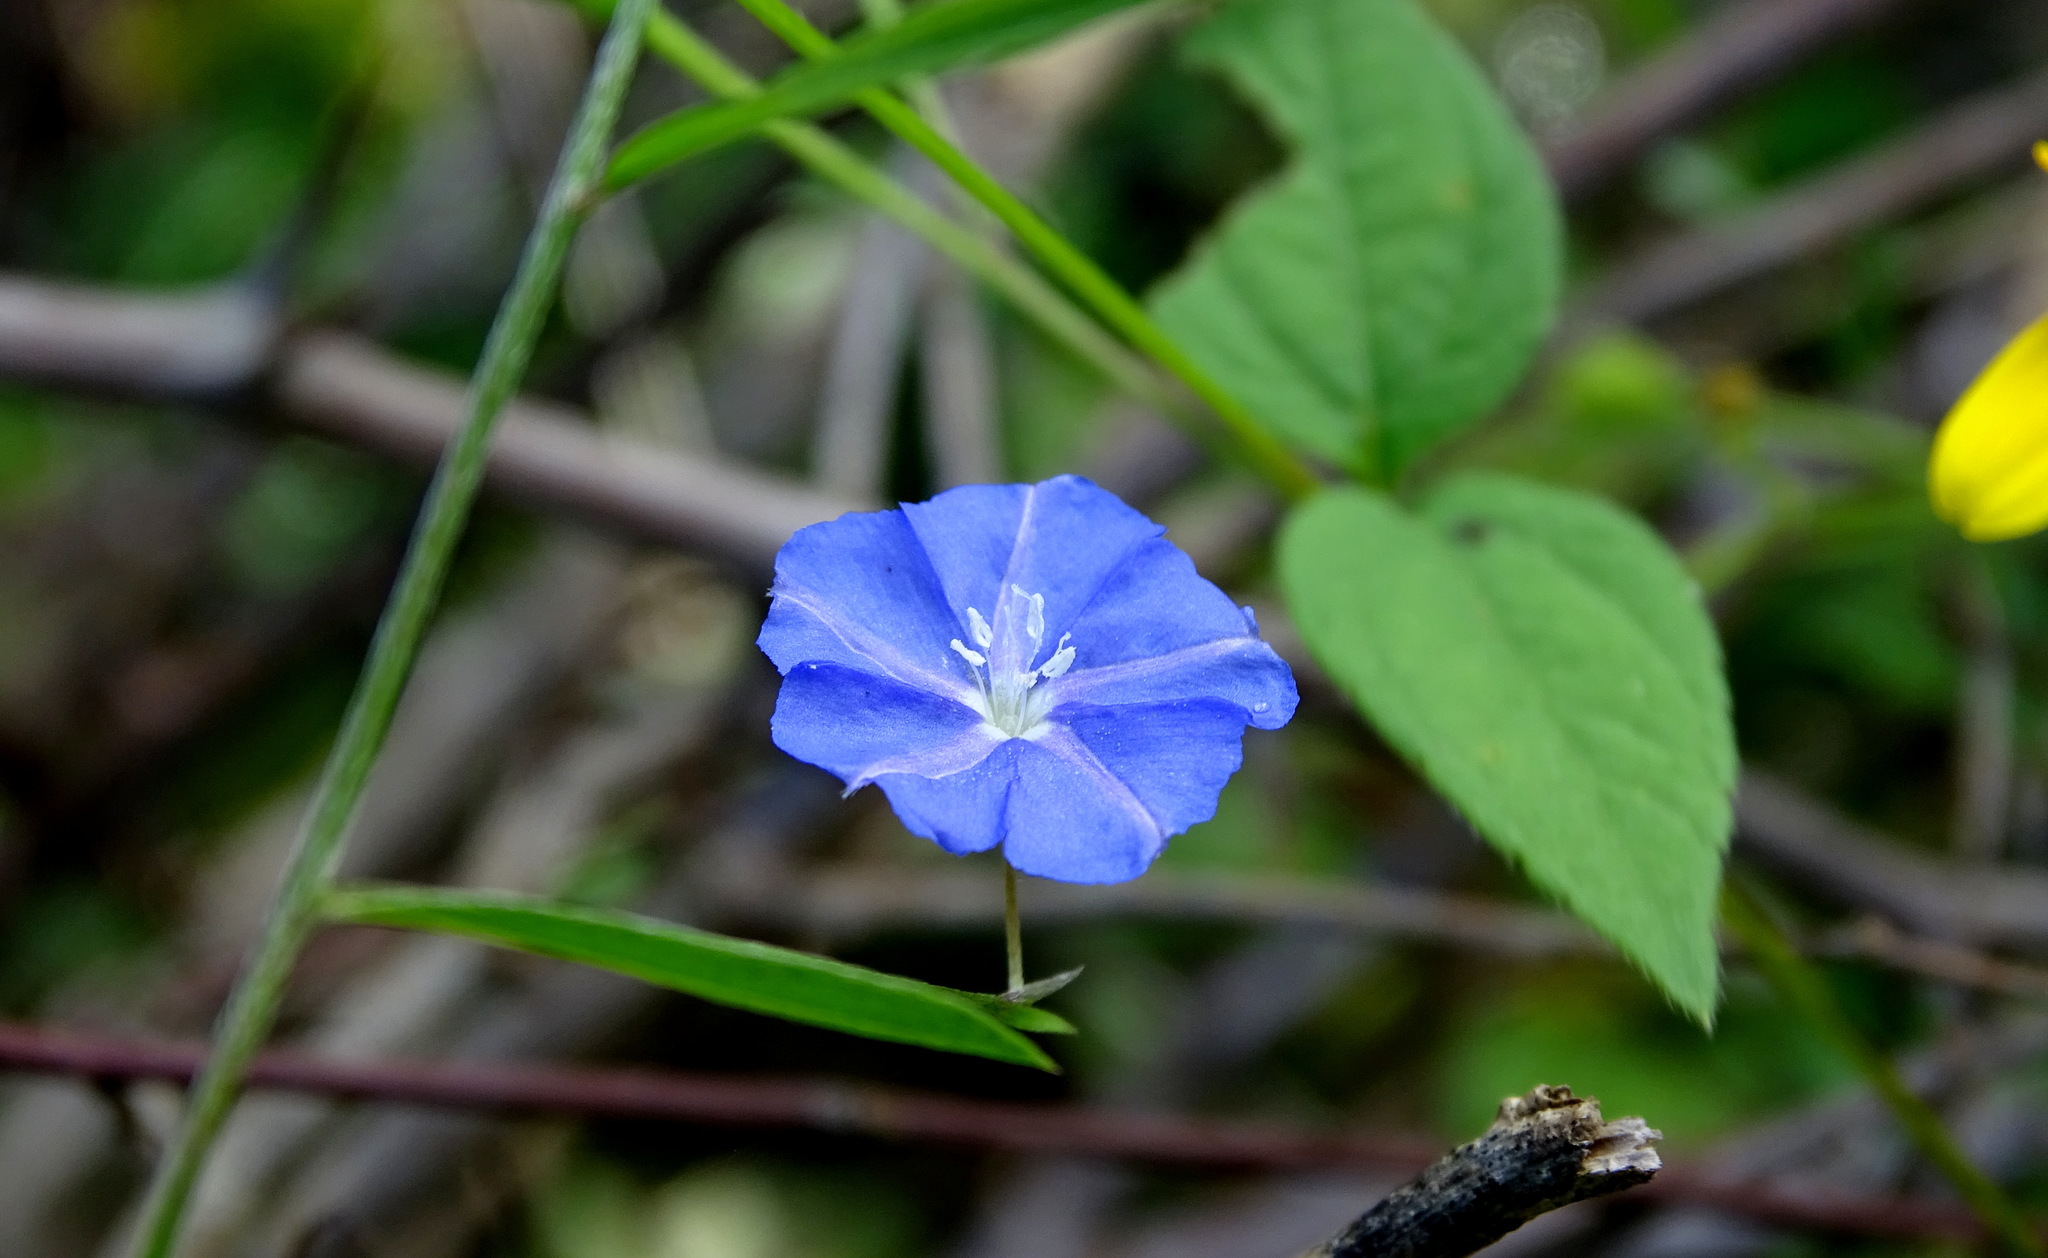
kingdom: Plantae
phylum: Tracheophyta
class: Magnoliopsida
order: Solanales
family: Convolvulaceae
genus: Evolvulus
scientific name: Evolvulus alsinoides
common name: Slender dwarf morning-glory
